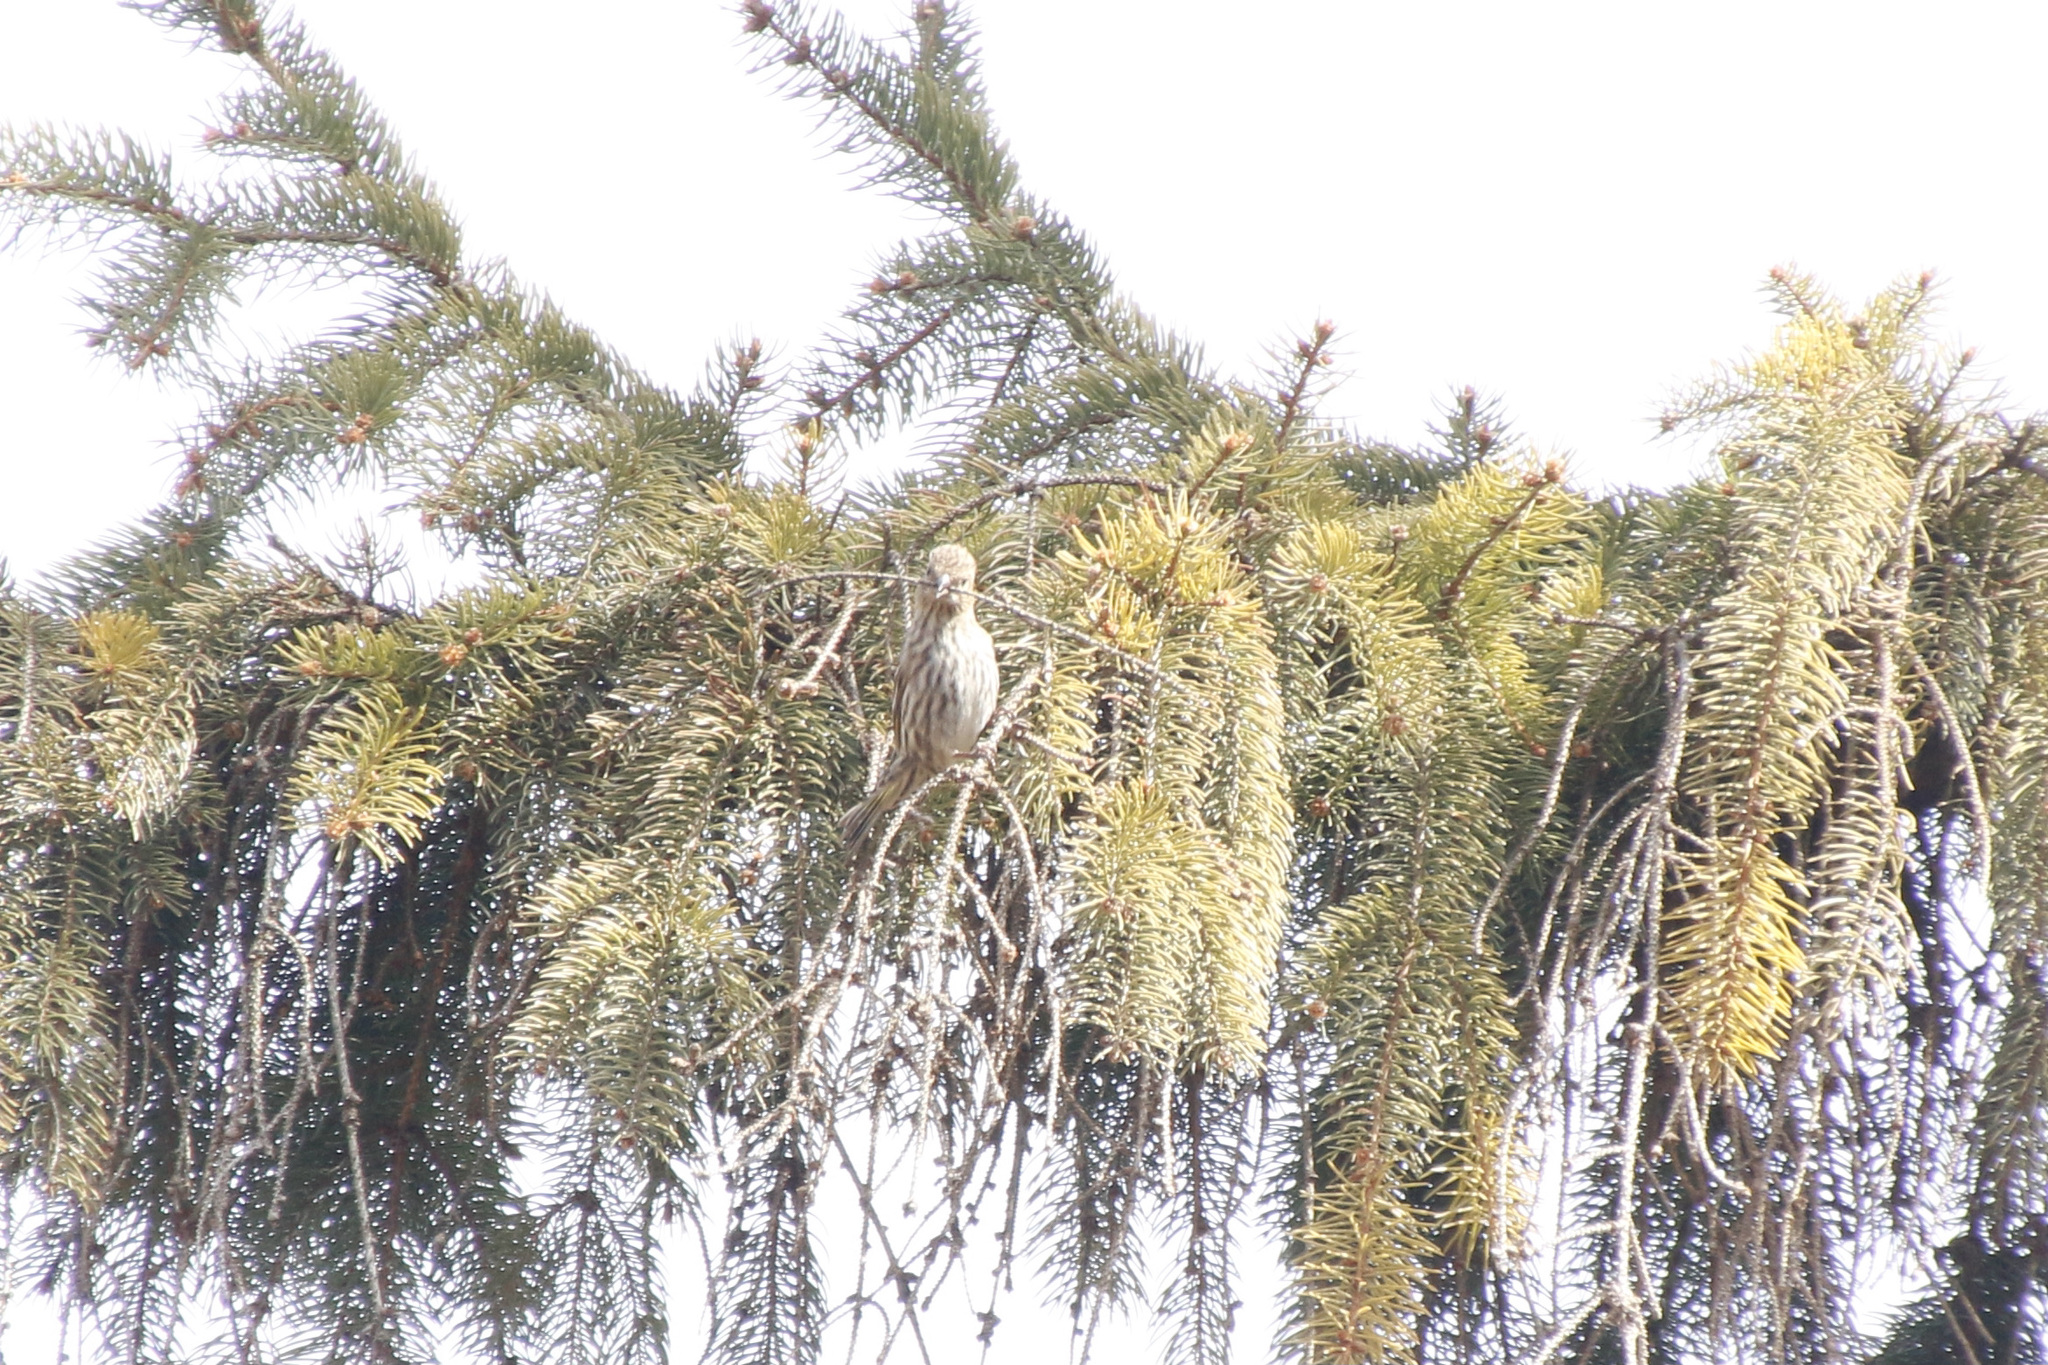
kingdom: Animalia
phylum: Chordata
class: Aves
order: Passeriformes
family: Fringillidae
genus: Spinus
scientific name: Spinus pinus
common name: Pine siskin
